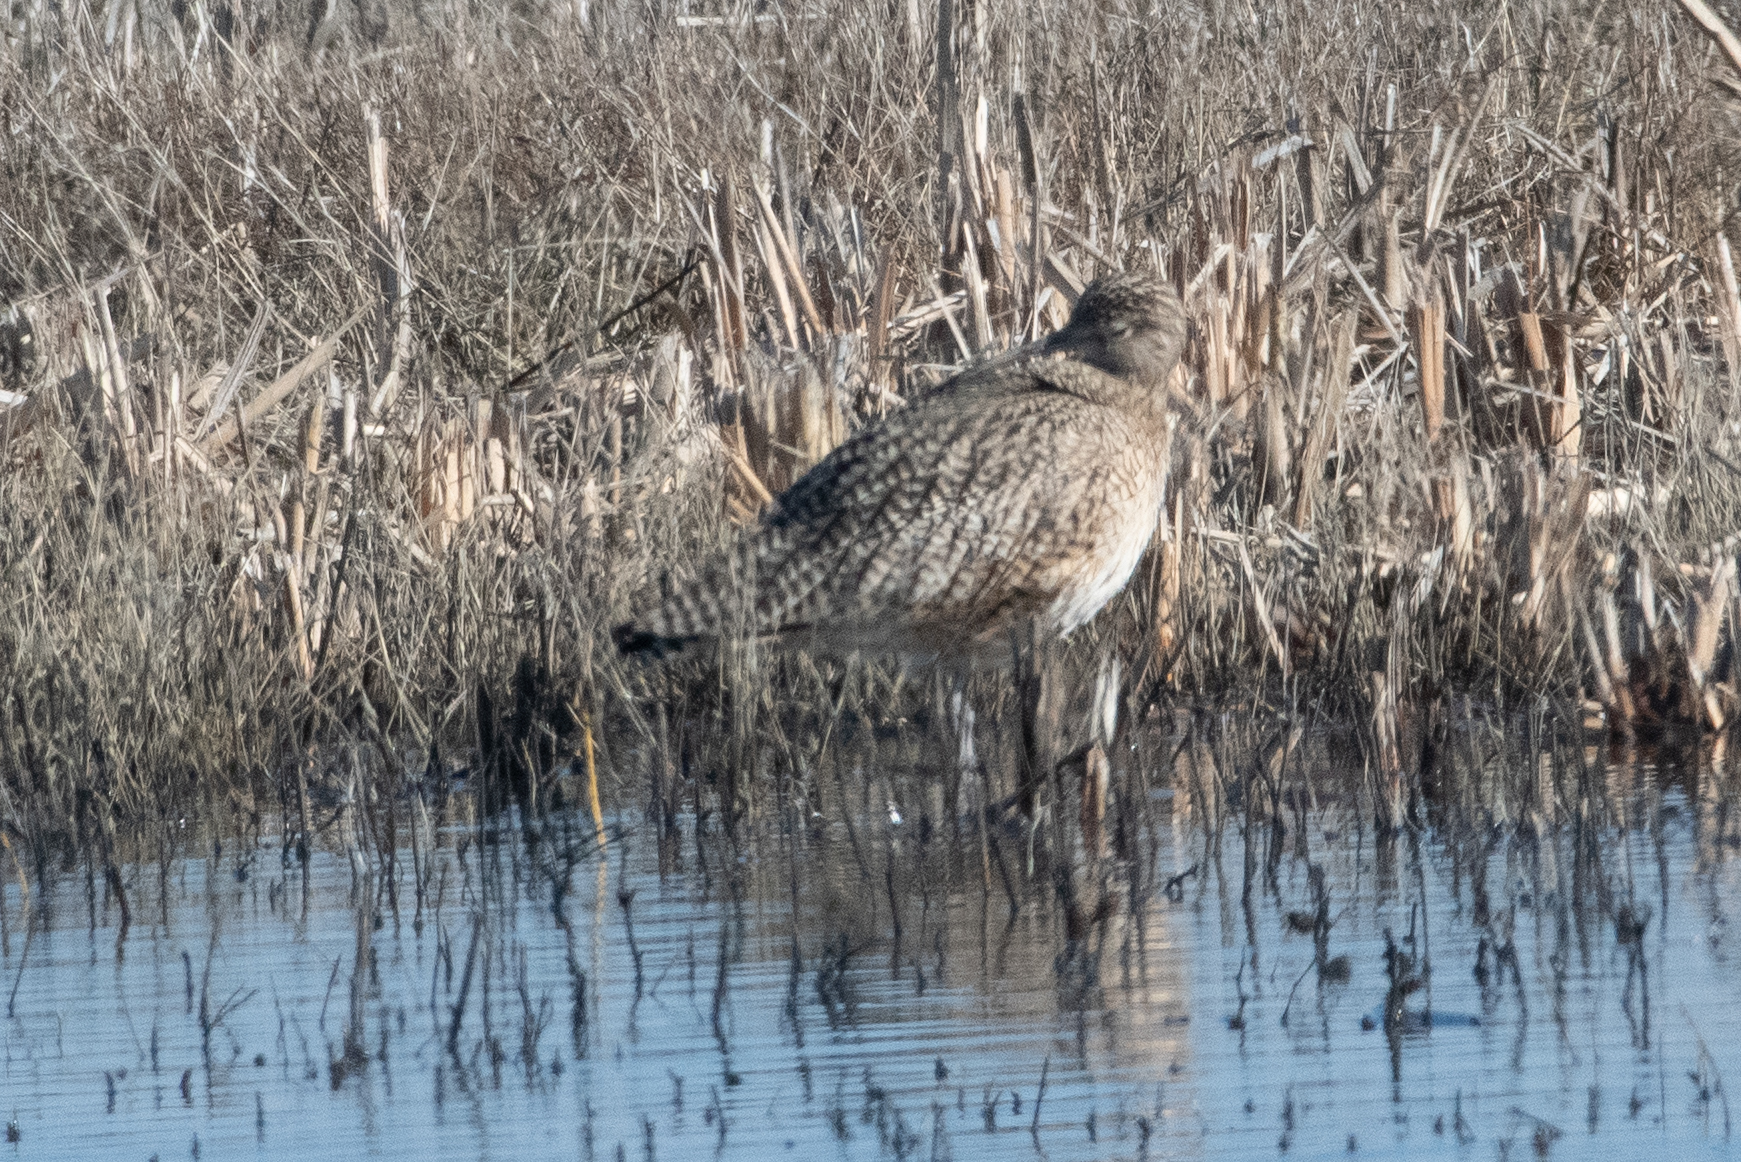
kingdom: Animalia
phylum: Chordata
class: Aves
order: Charadriiformes
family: Scolopacidae
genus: Numenius
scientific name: Numenius americanus
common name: Long-billed curlew
